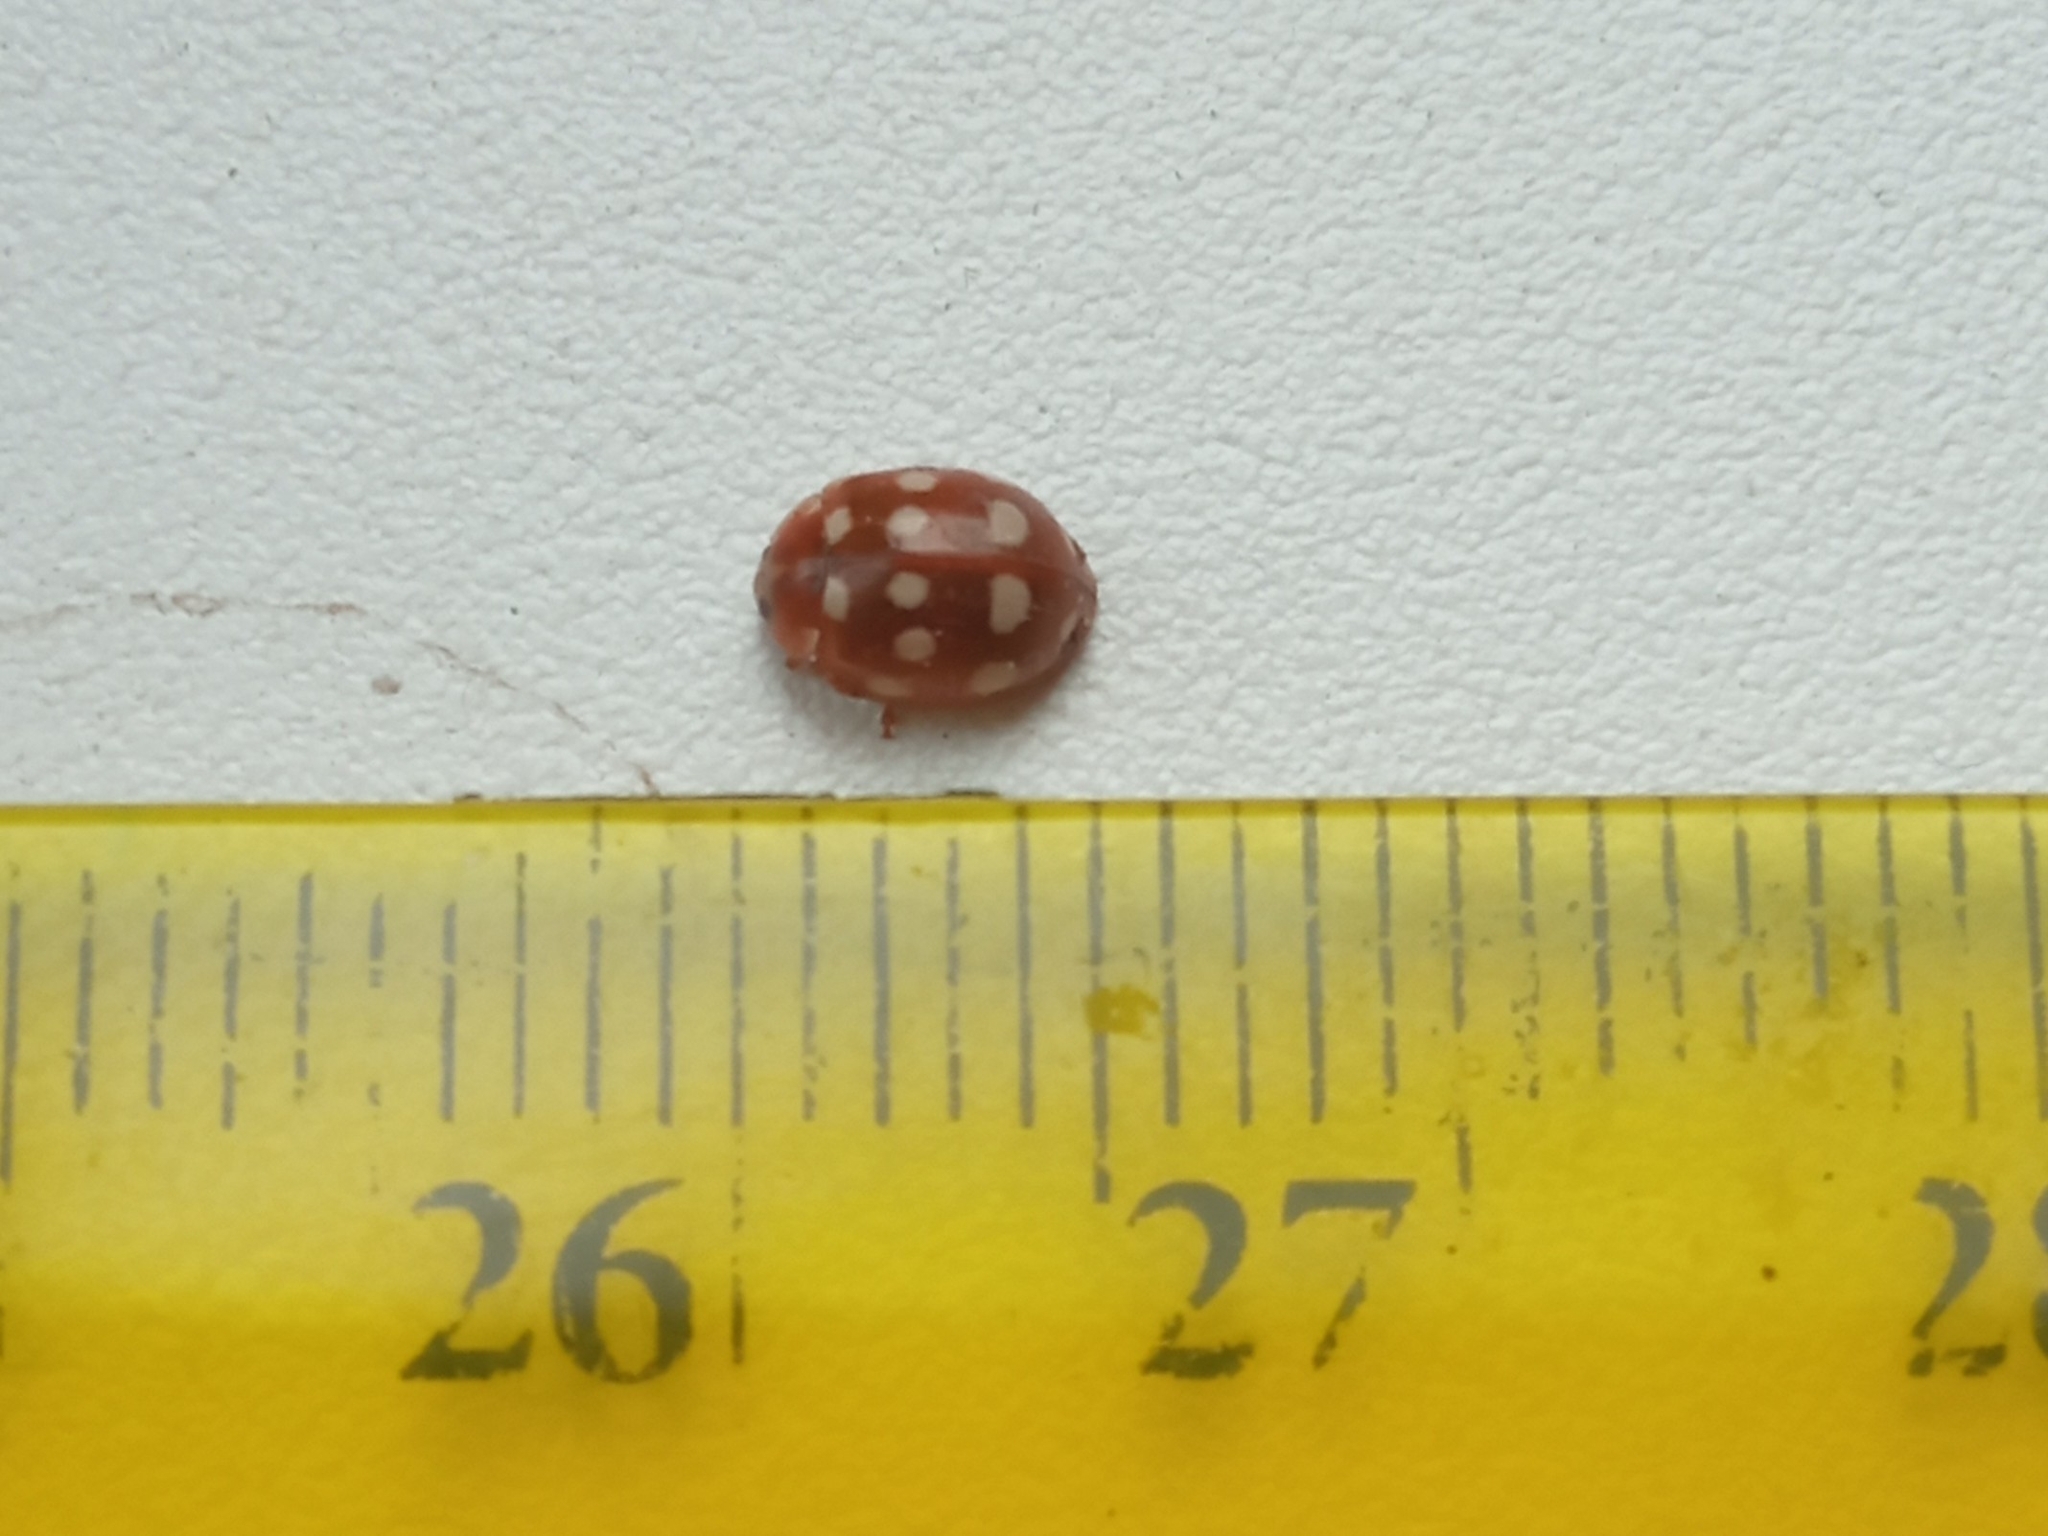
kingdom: Animalia
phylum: Arthropoda
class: Insecta
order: Coleoptera
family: Coccinellidae
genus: Calvia
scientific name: Calvia quatuordecimguttata
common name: Cream-spot ladybird
